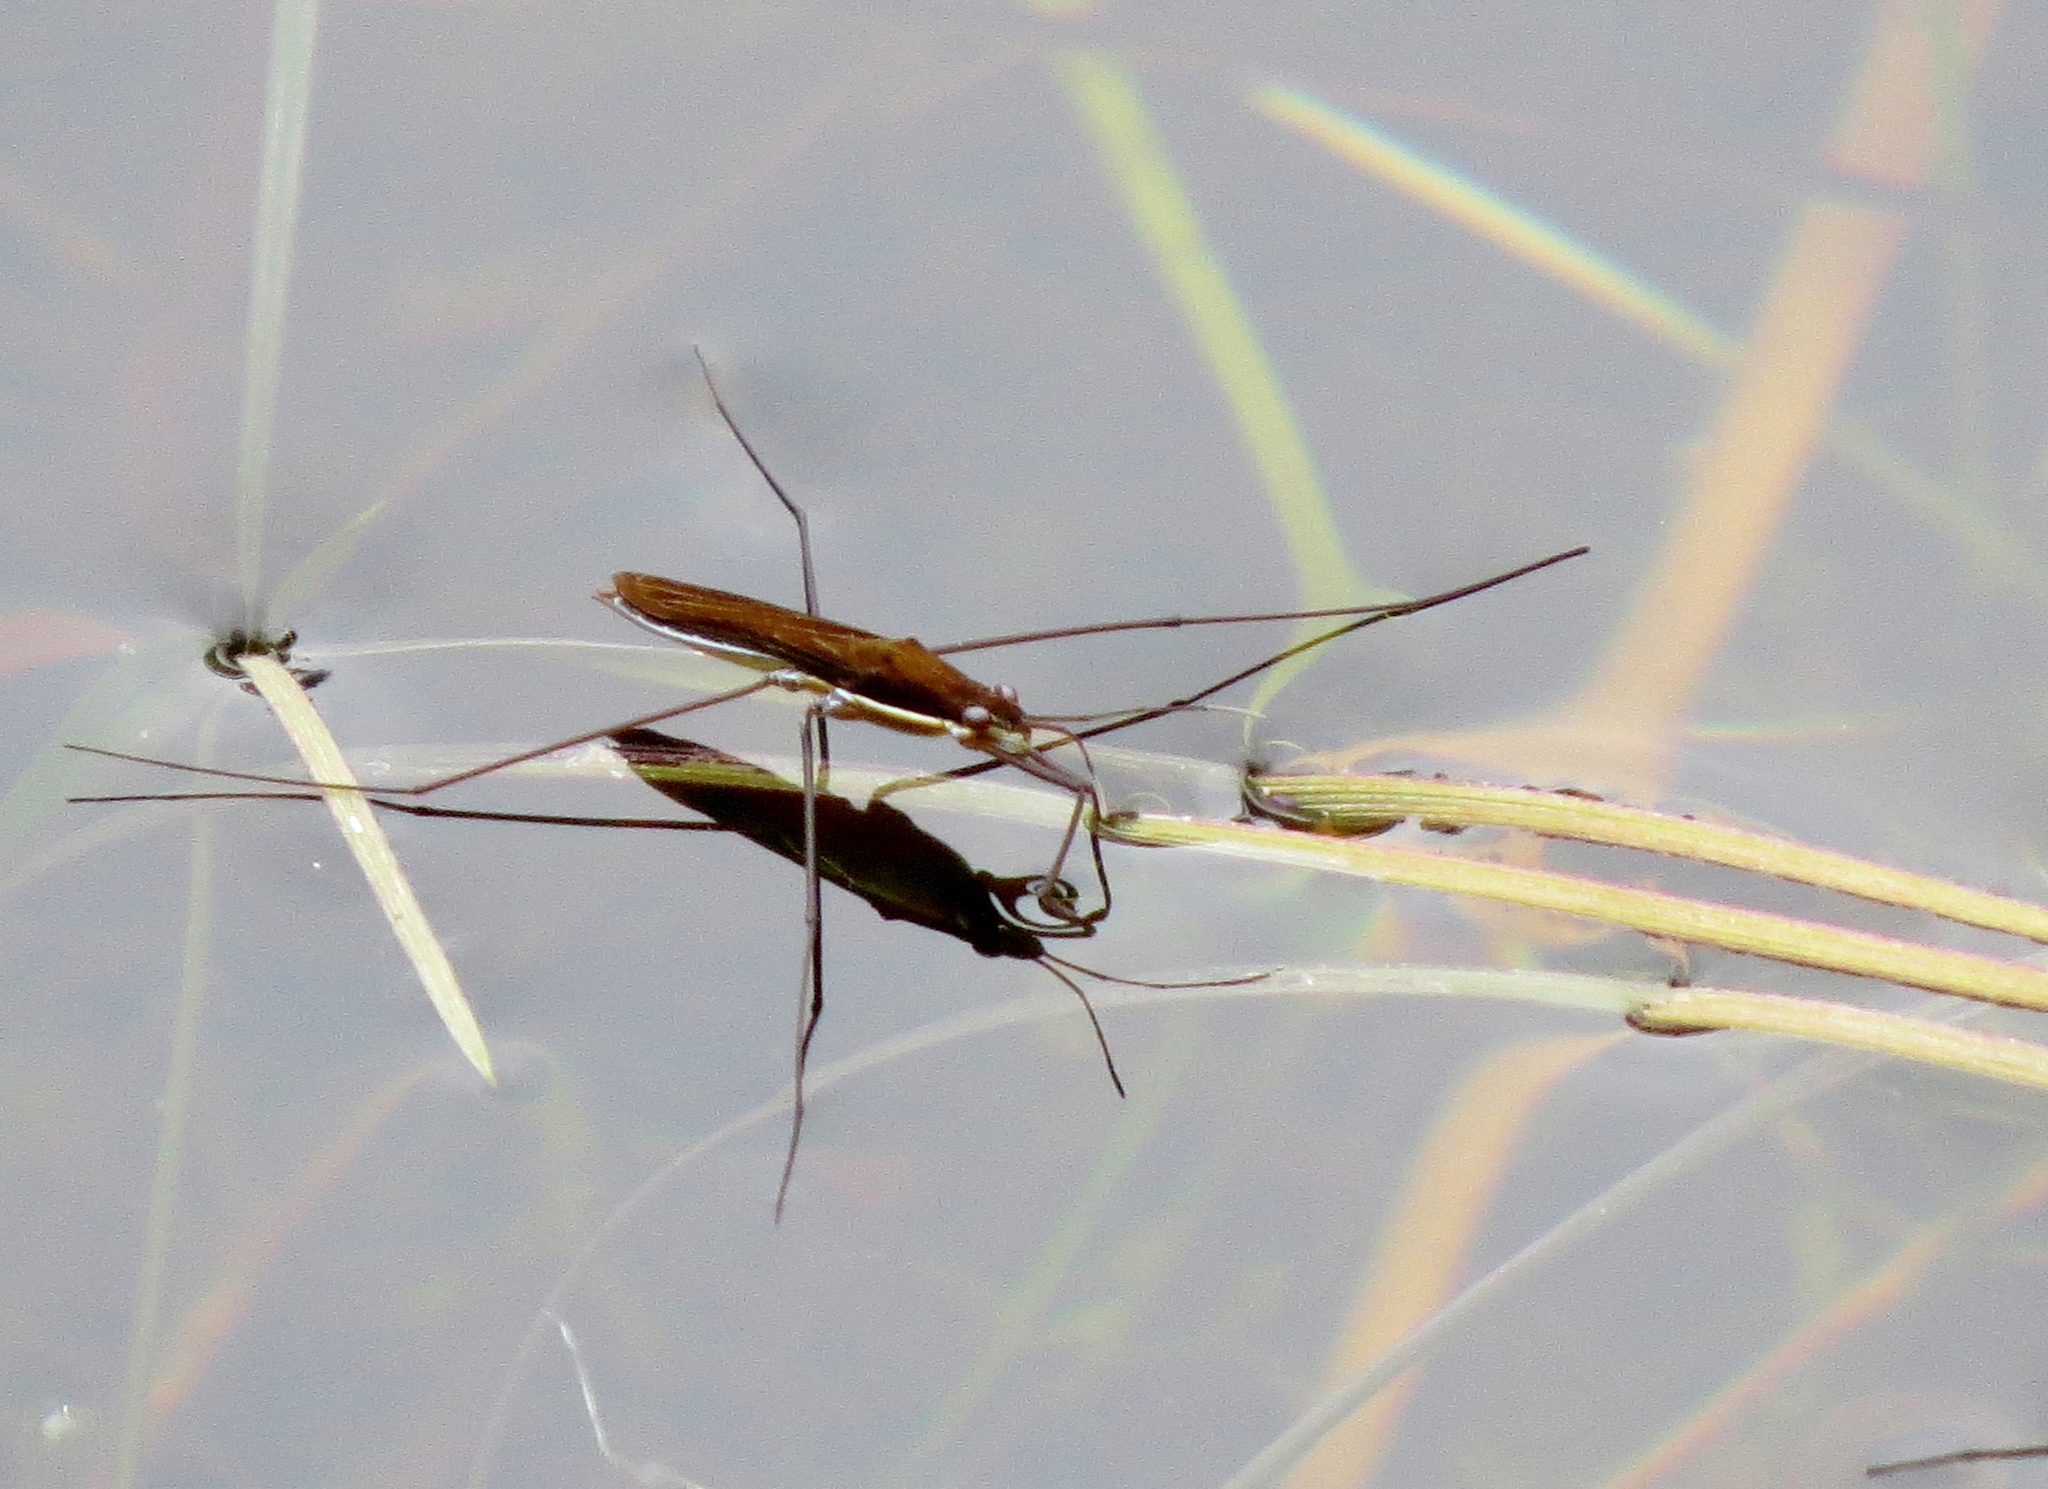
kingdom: Animalia
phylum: Arthropoda
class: Insecta
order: Hemiptera
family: Gerridae
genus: Limnoporus
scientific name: Limnoporus dissortis
